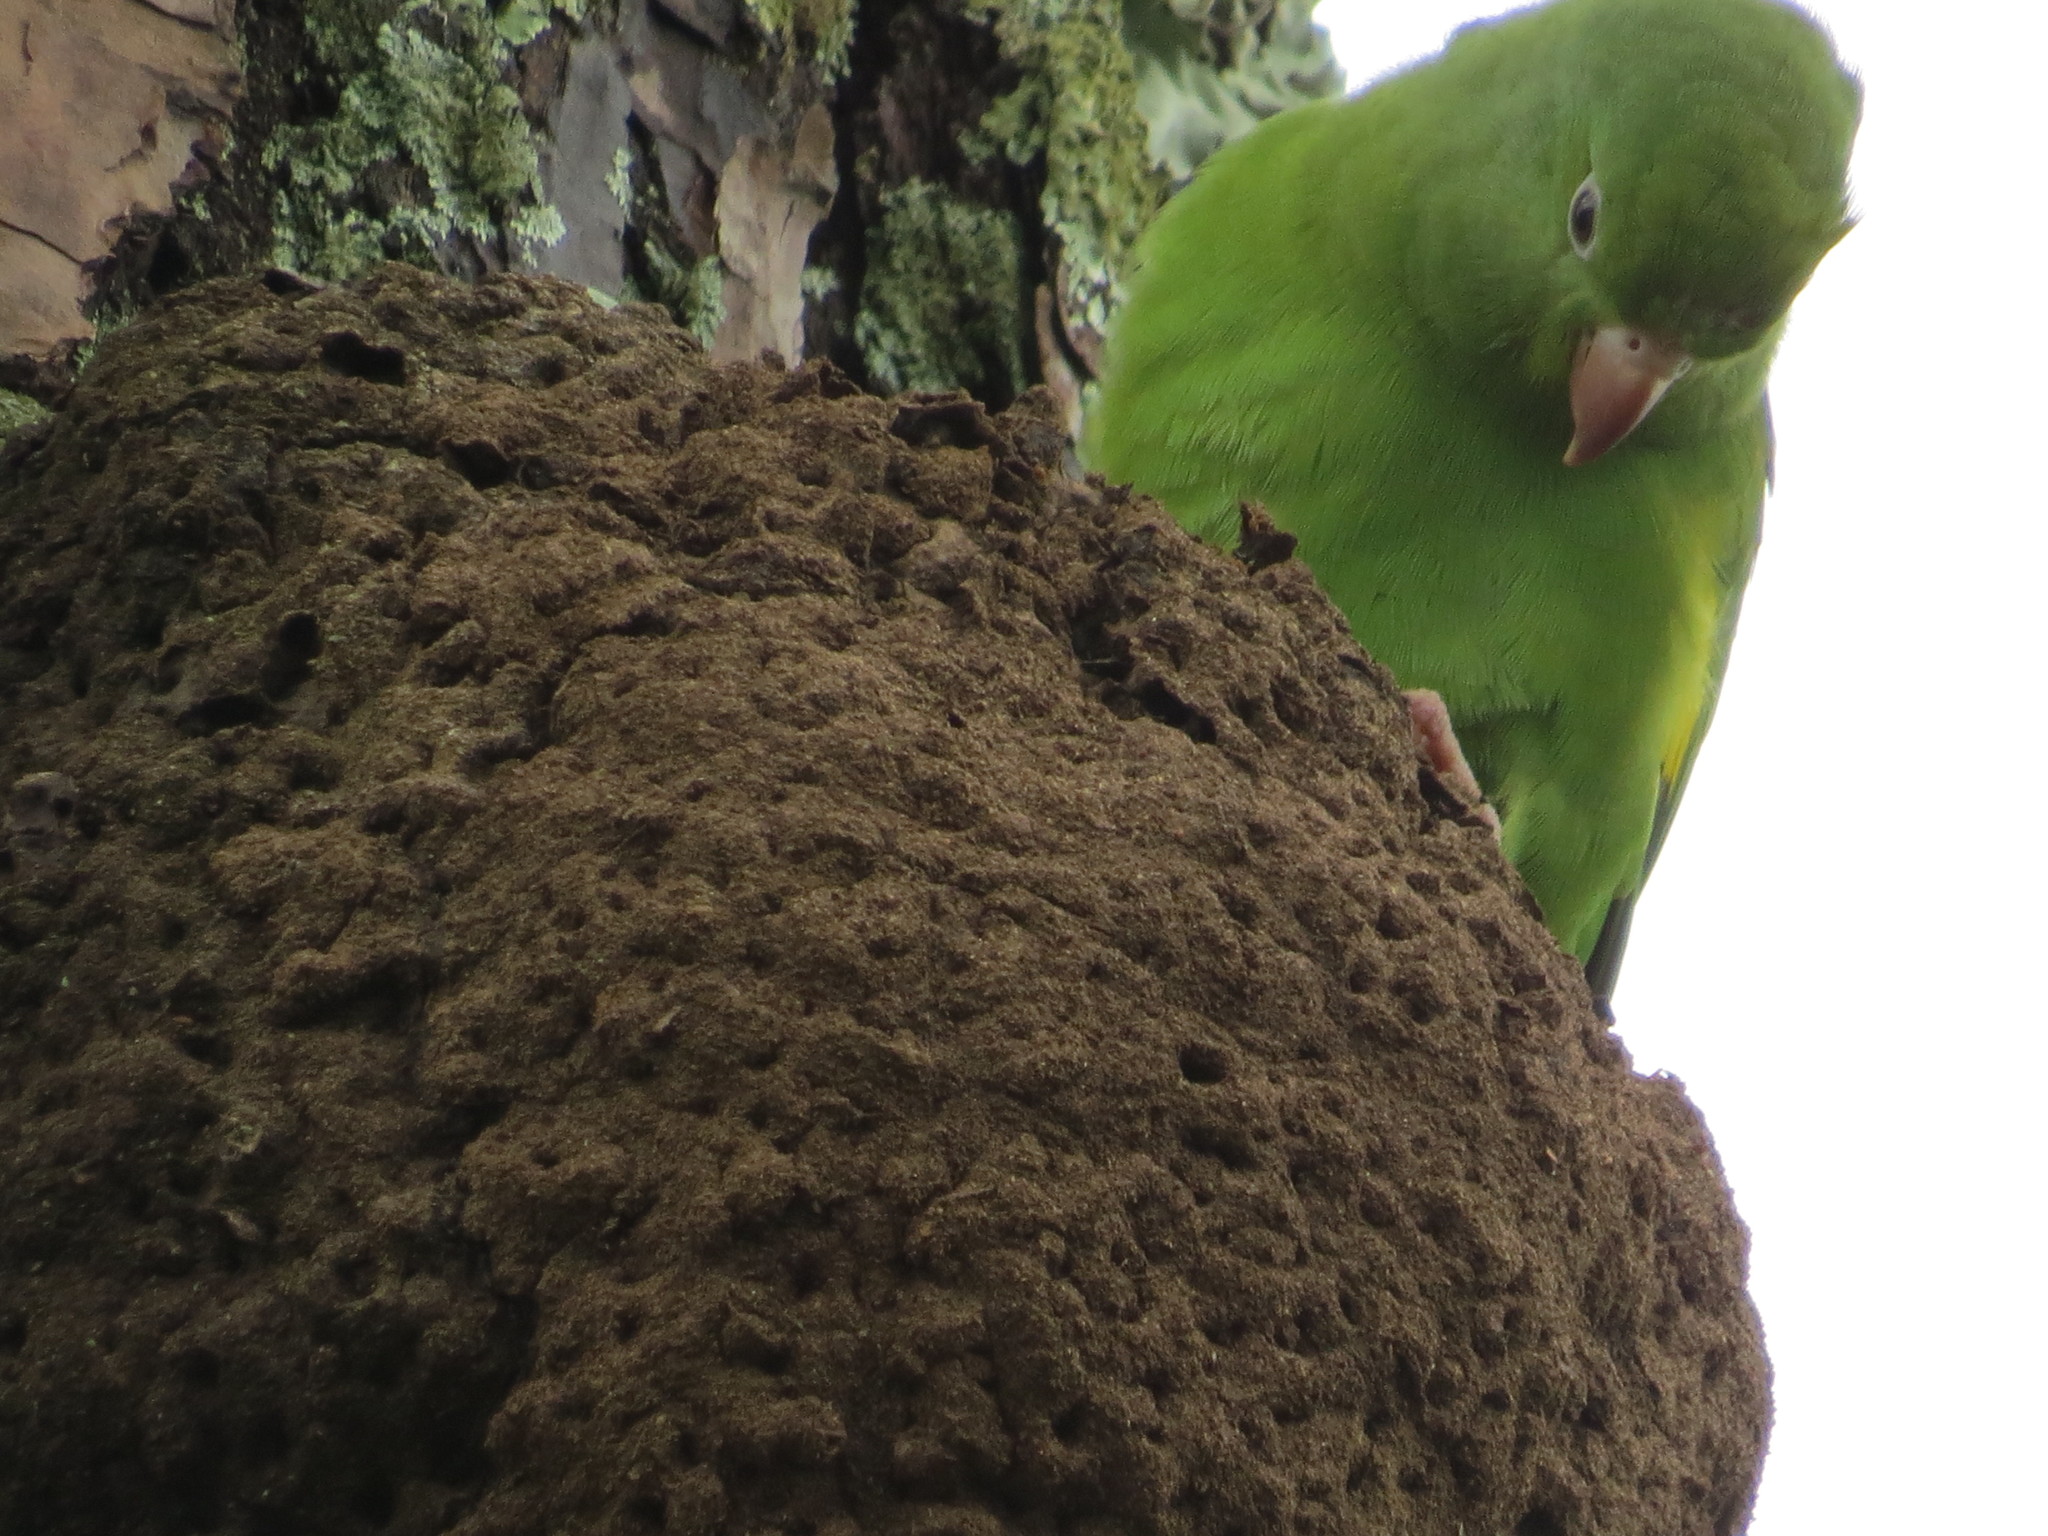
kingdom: Animalia
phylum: Chordata
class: Aves
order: Psittaciformes
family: Psittacidae
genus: Brotogeris
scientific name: Brotogeris chiriri
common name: Yellow-chevroned parakeet
